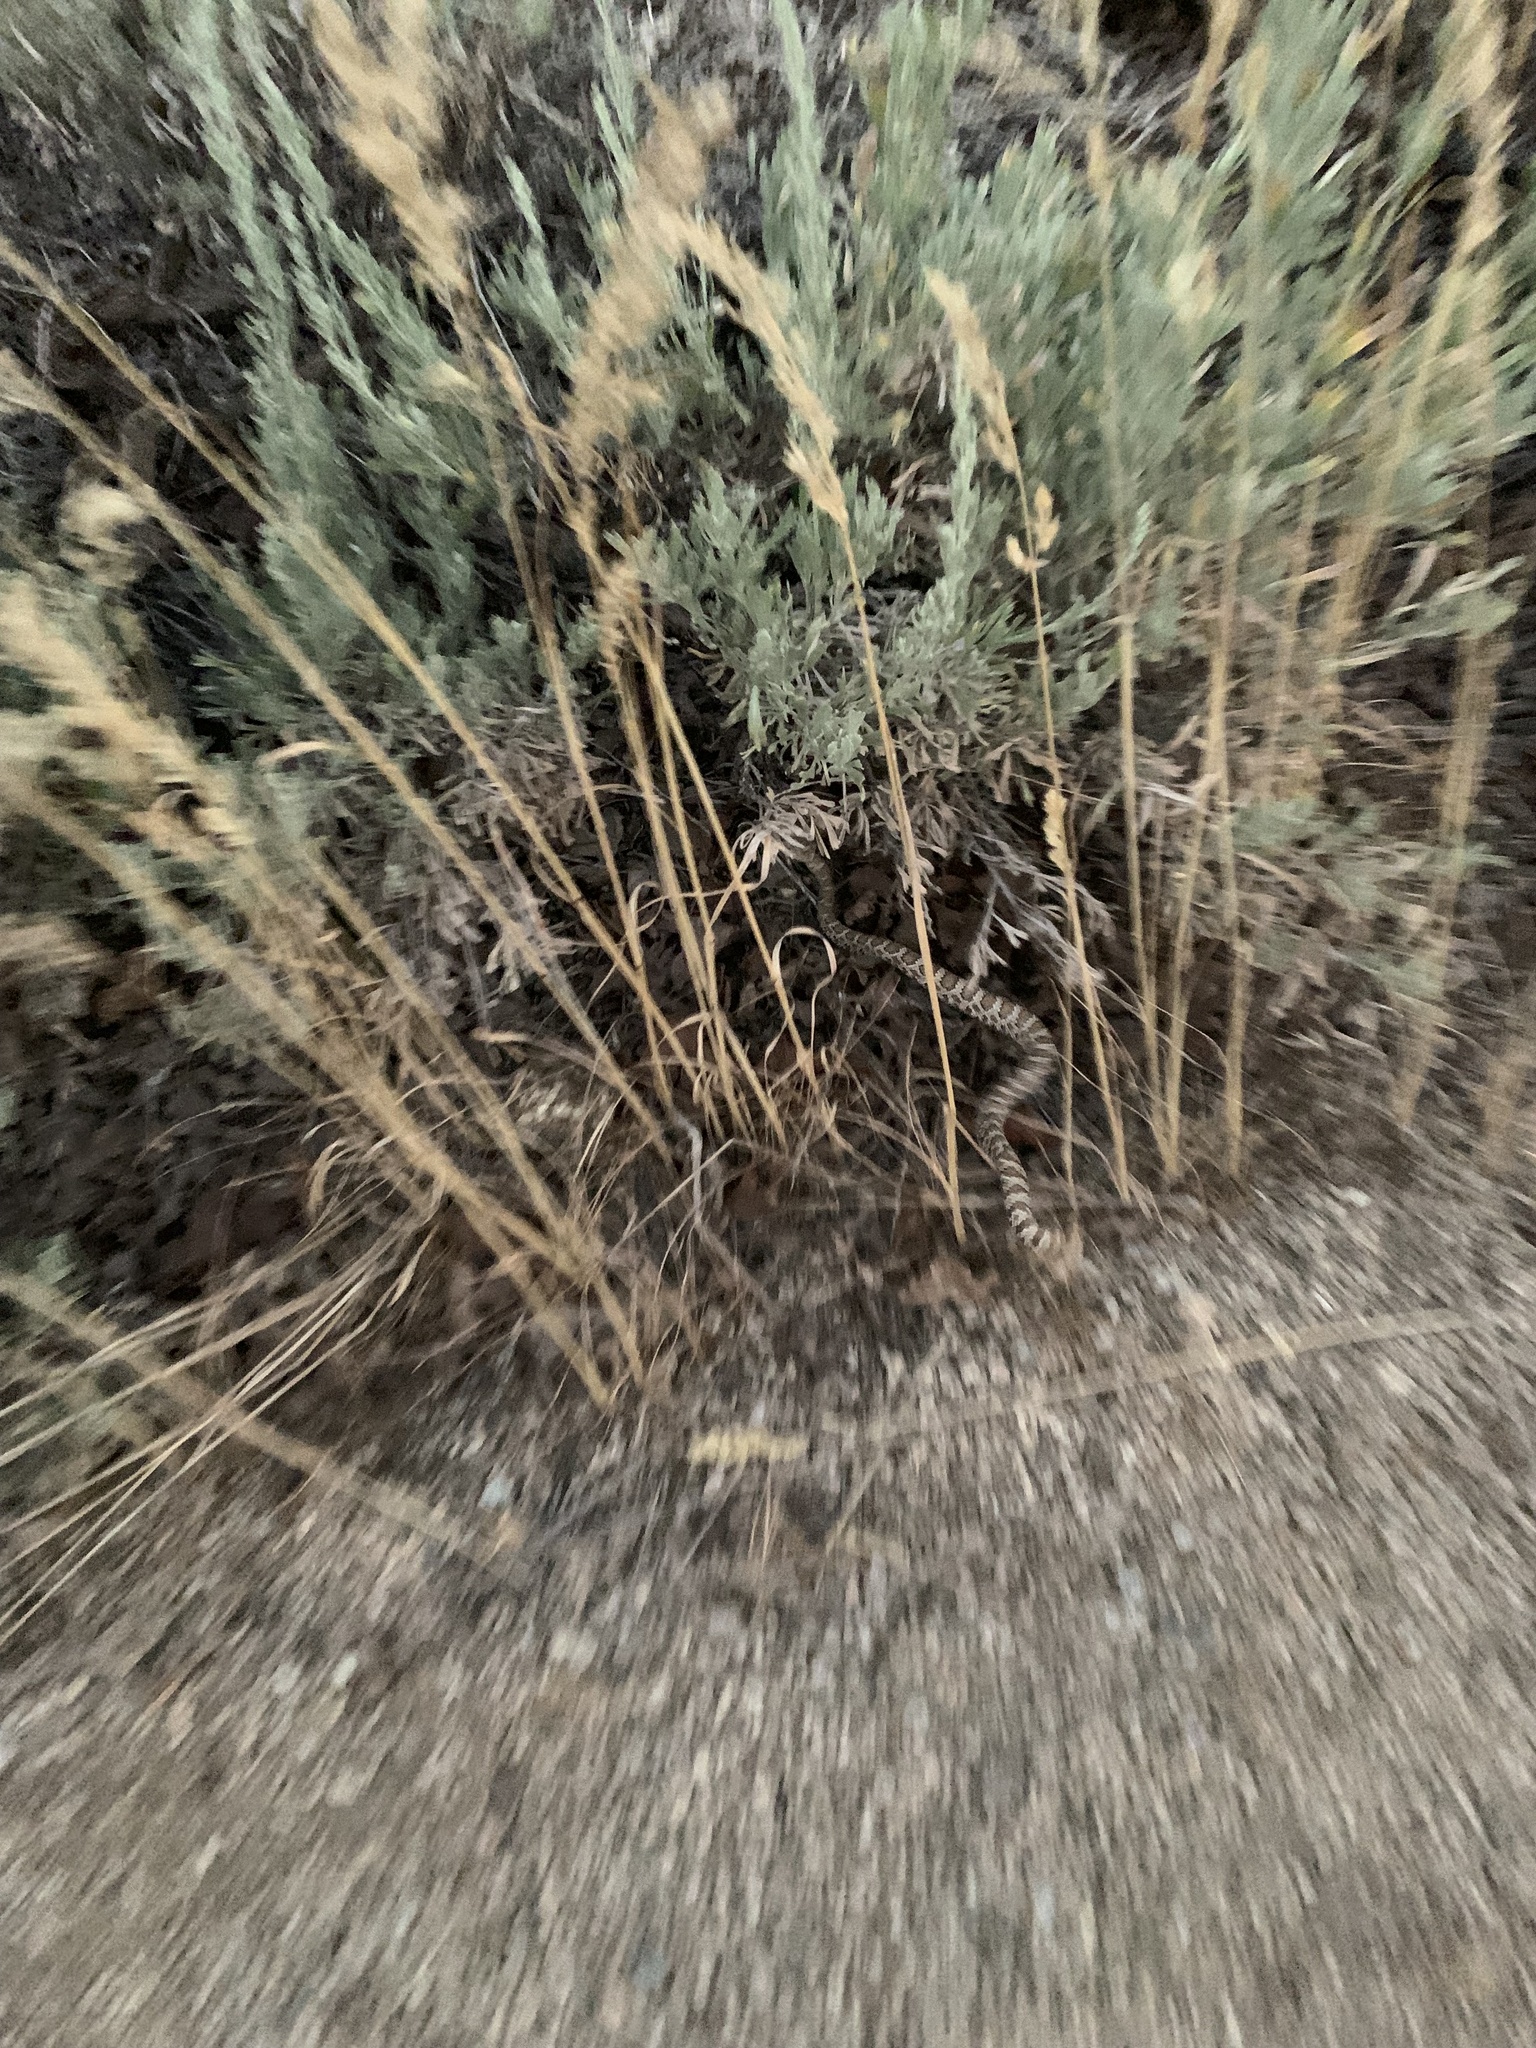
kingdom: Animalia
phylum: Chordata
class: Squamata
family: Viperidae
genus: Crotalus
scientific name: Crotalus oreganus
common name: Abyssus
